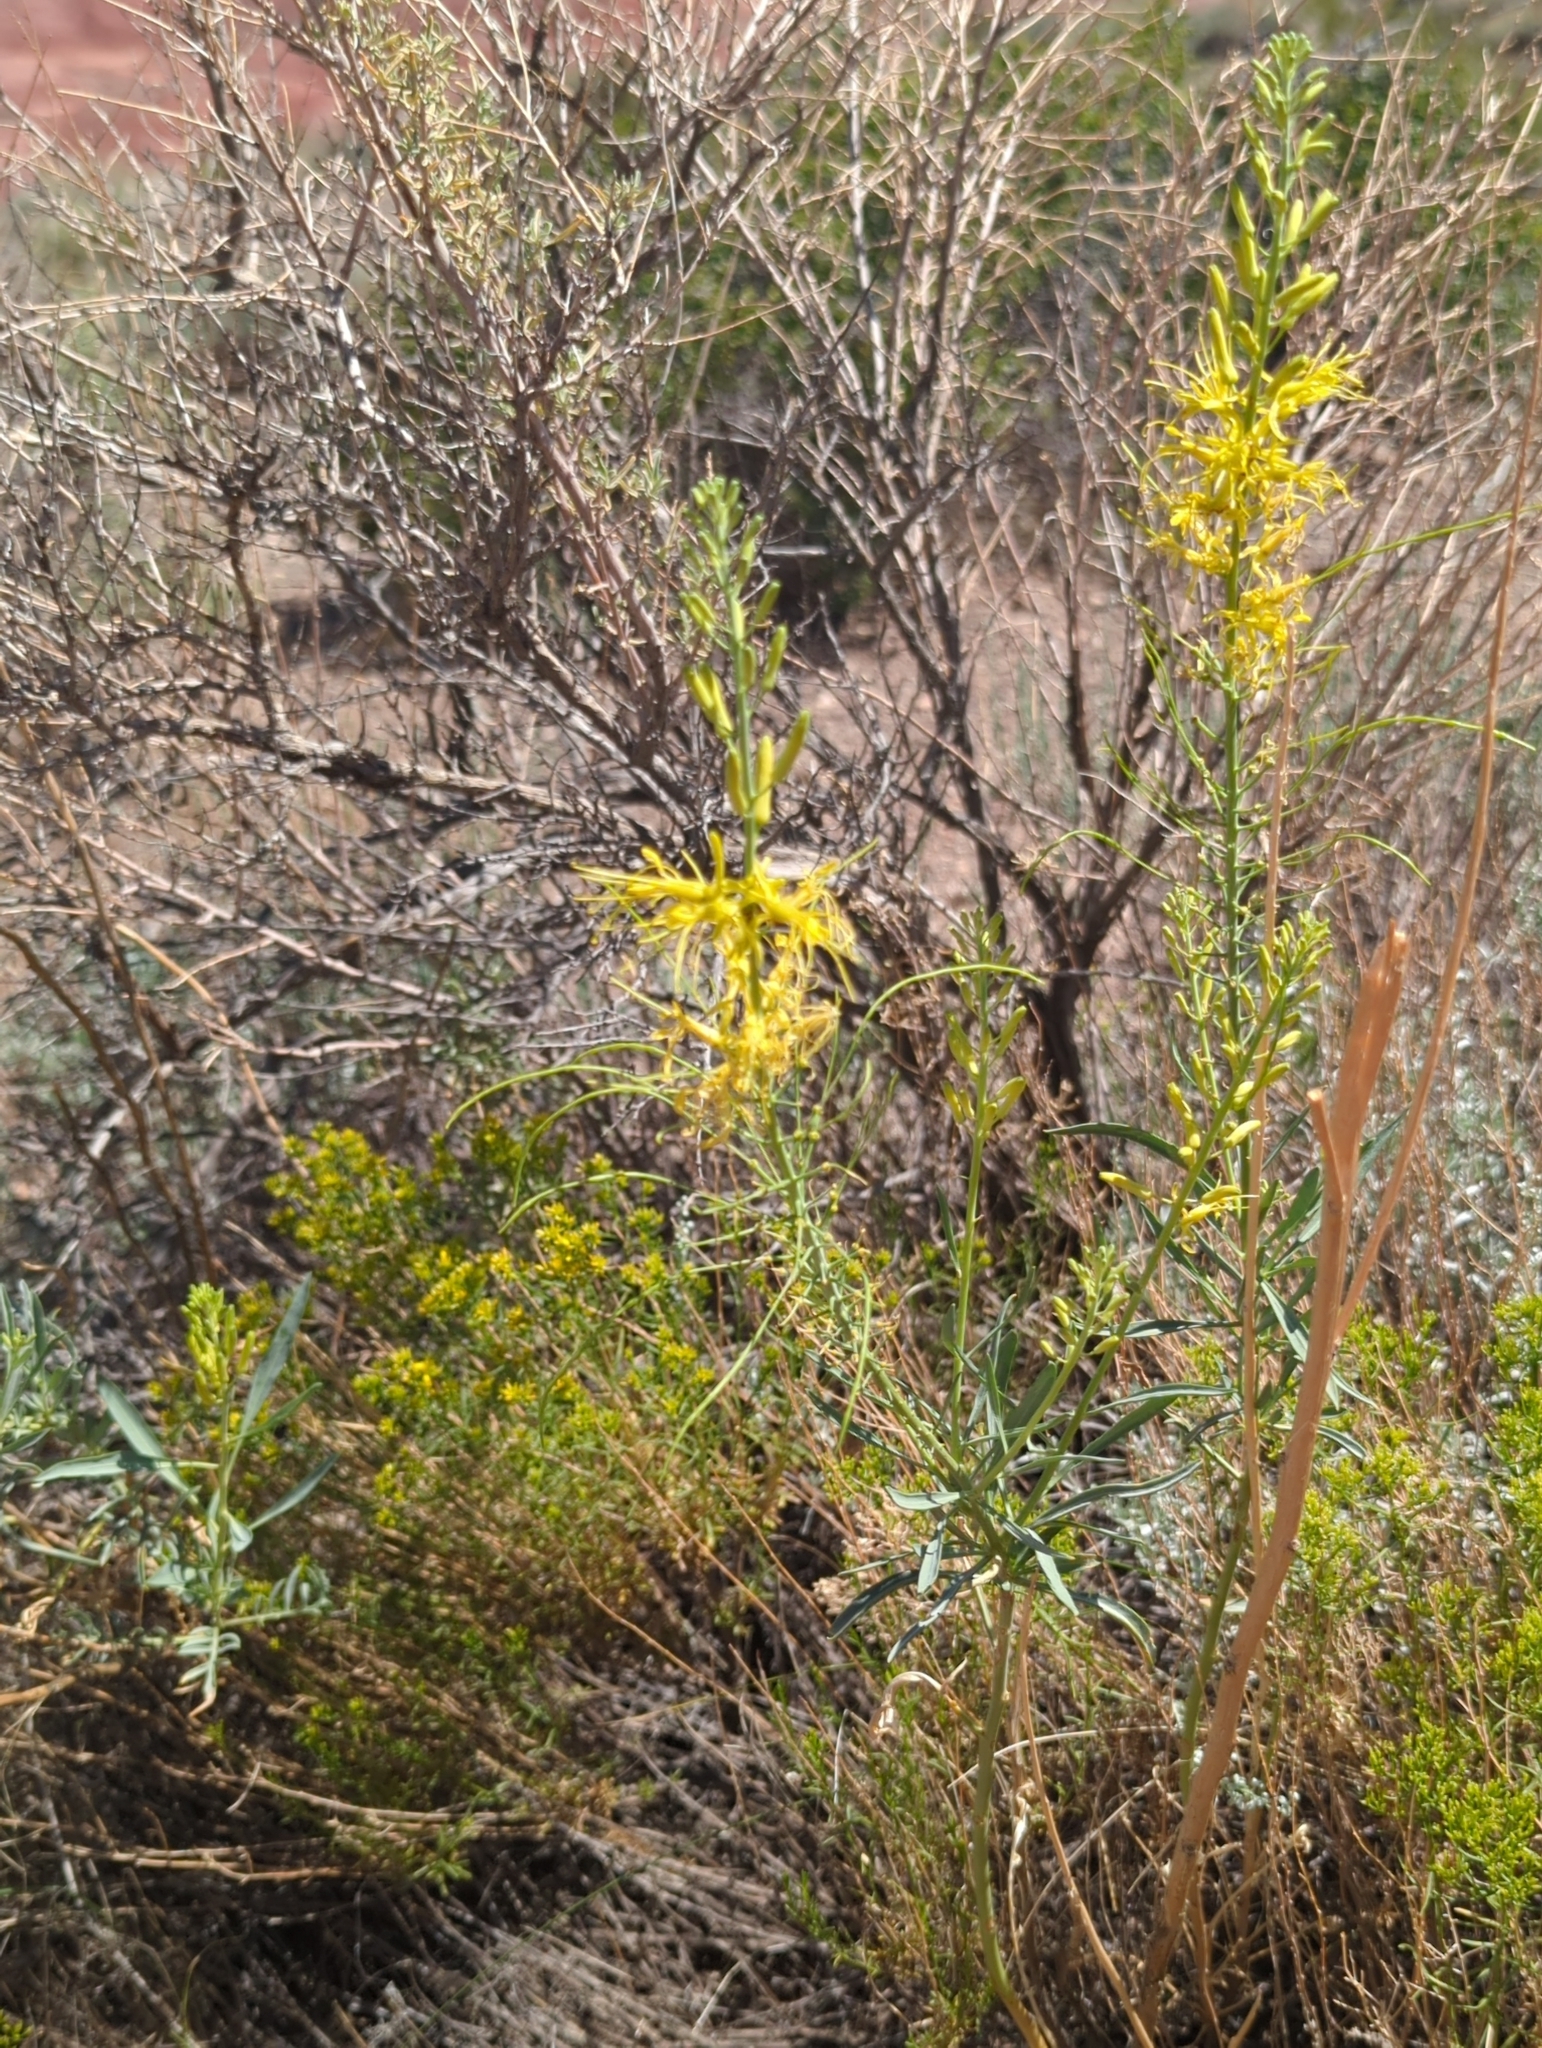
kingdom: Plantae
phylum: Tracheophyta
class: Magnoliopsida
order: Brassicales
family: Brassicaceae
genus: Stanleya
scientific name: Stanleya pinnata
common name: Prince's-plume
